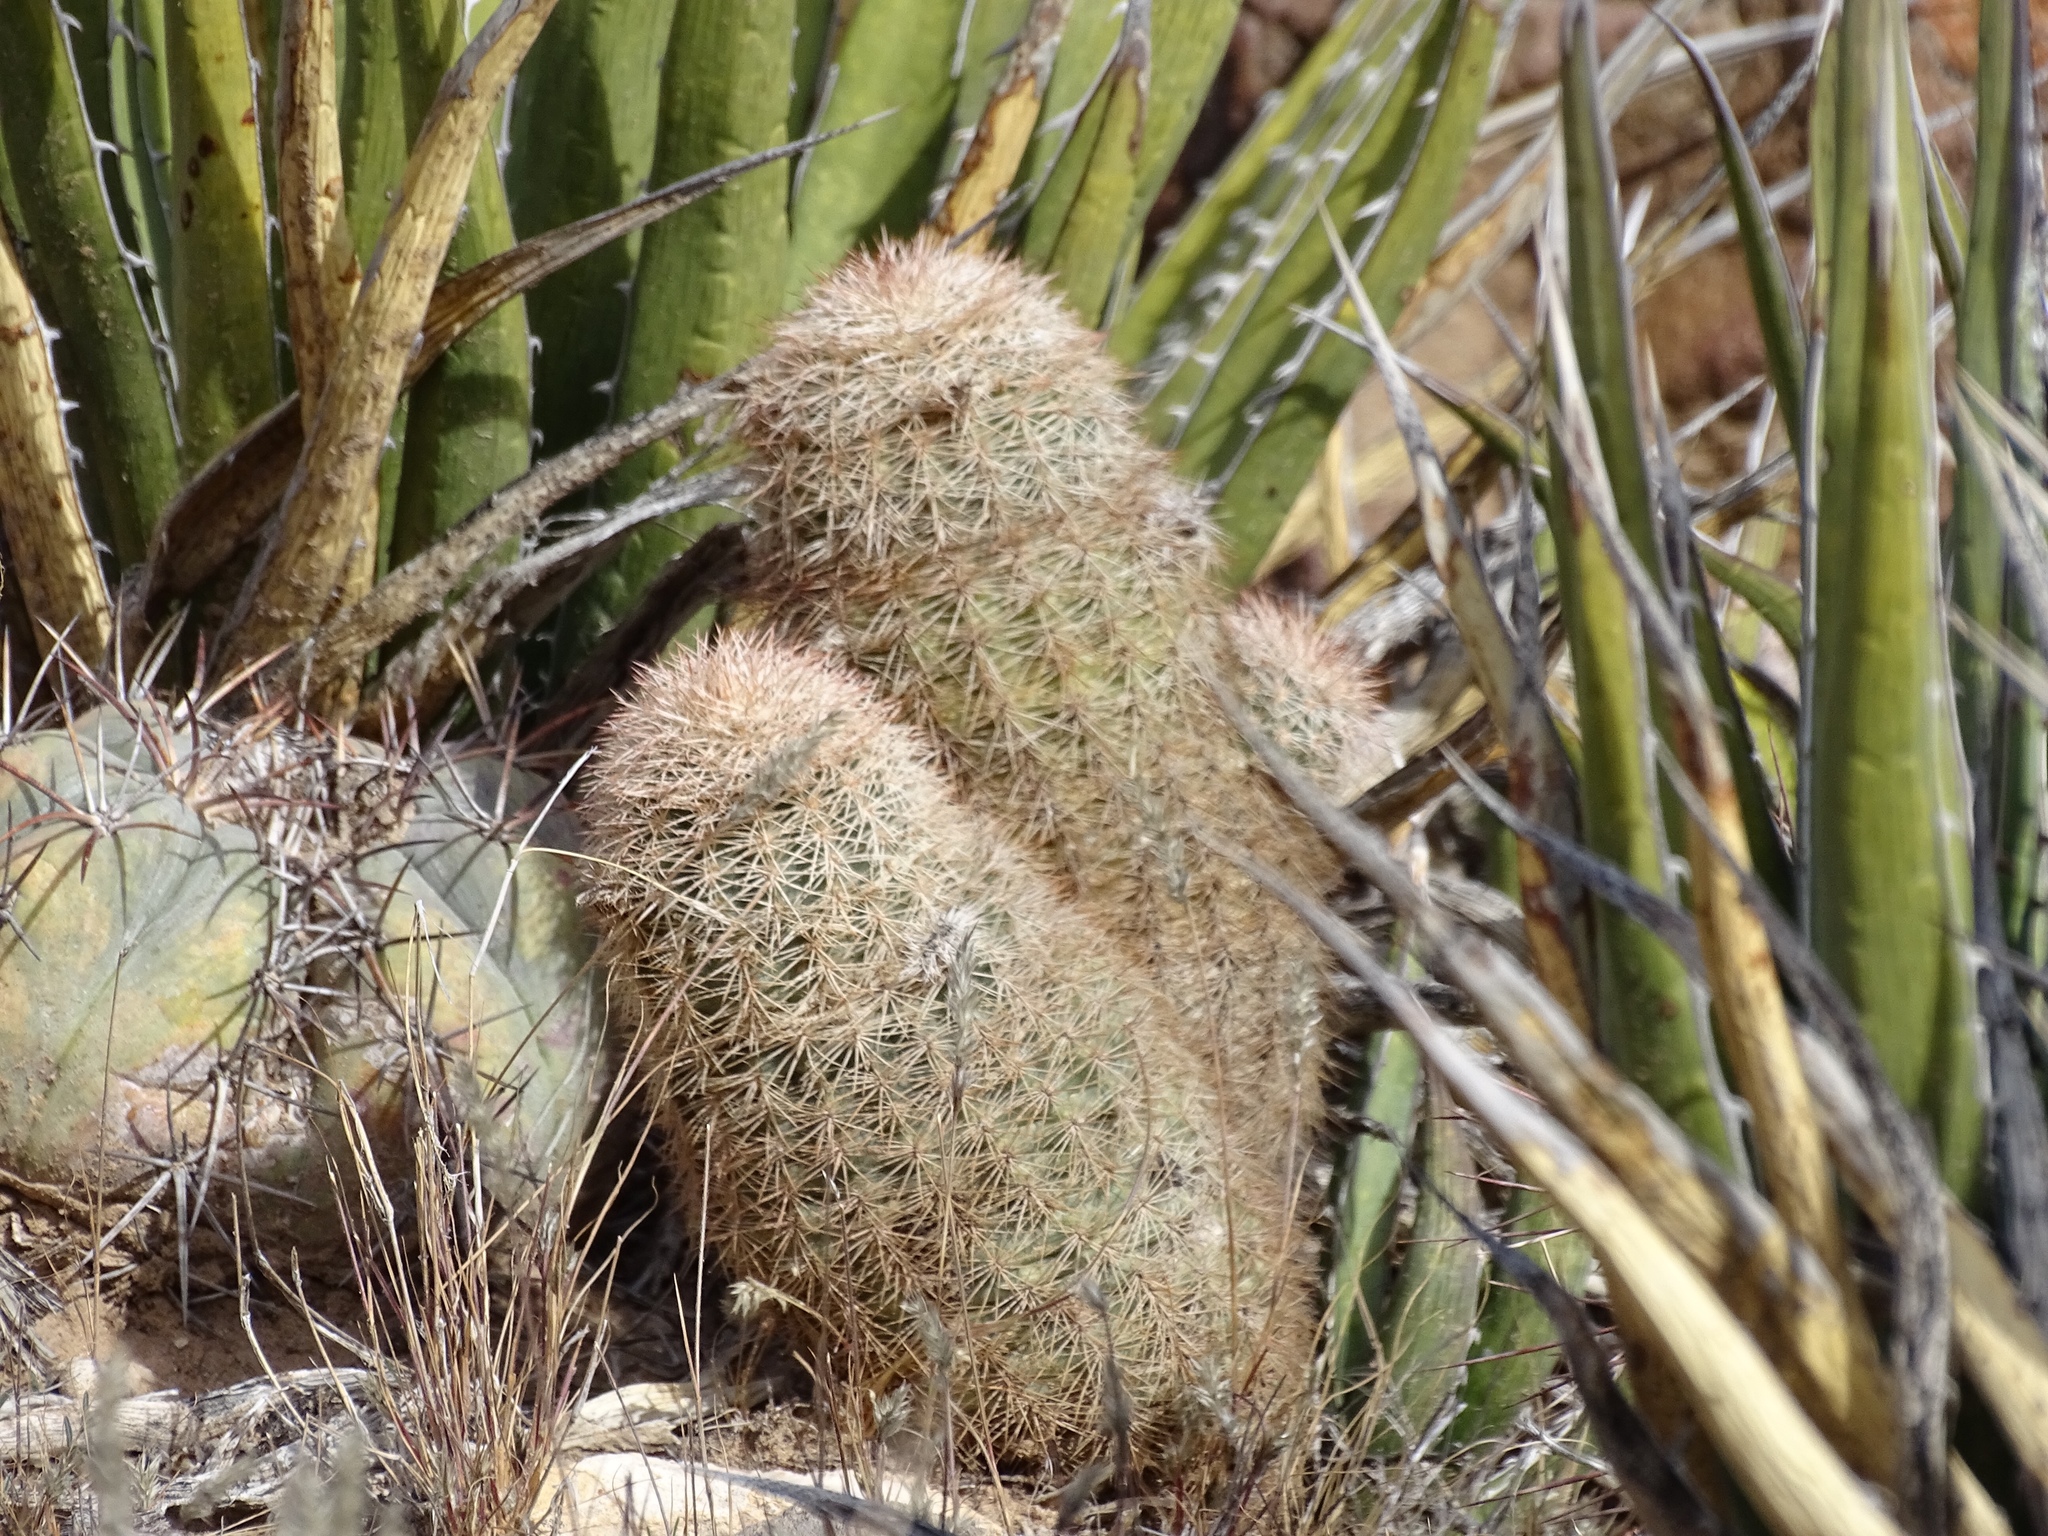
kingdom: Plantae
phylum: Tracheophyta
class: Magnoliopsida
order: Caryophyllales
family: Cactaceae
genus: Echinocereus
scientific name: Echinocereus dasyacanthus
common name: Spiny hedgehog cactus
